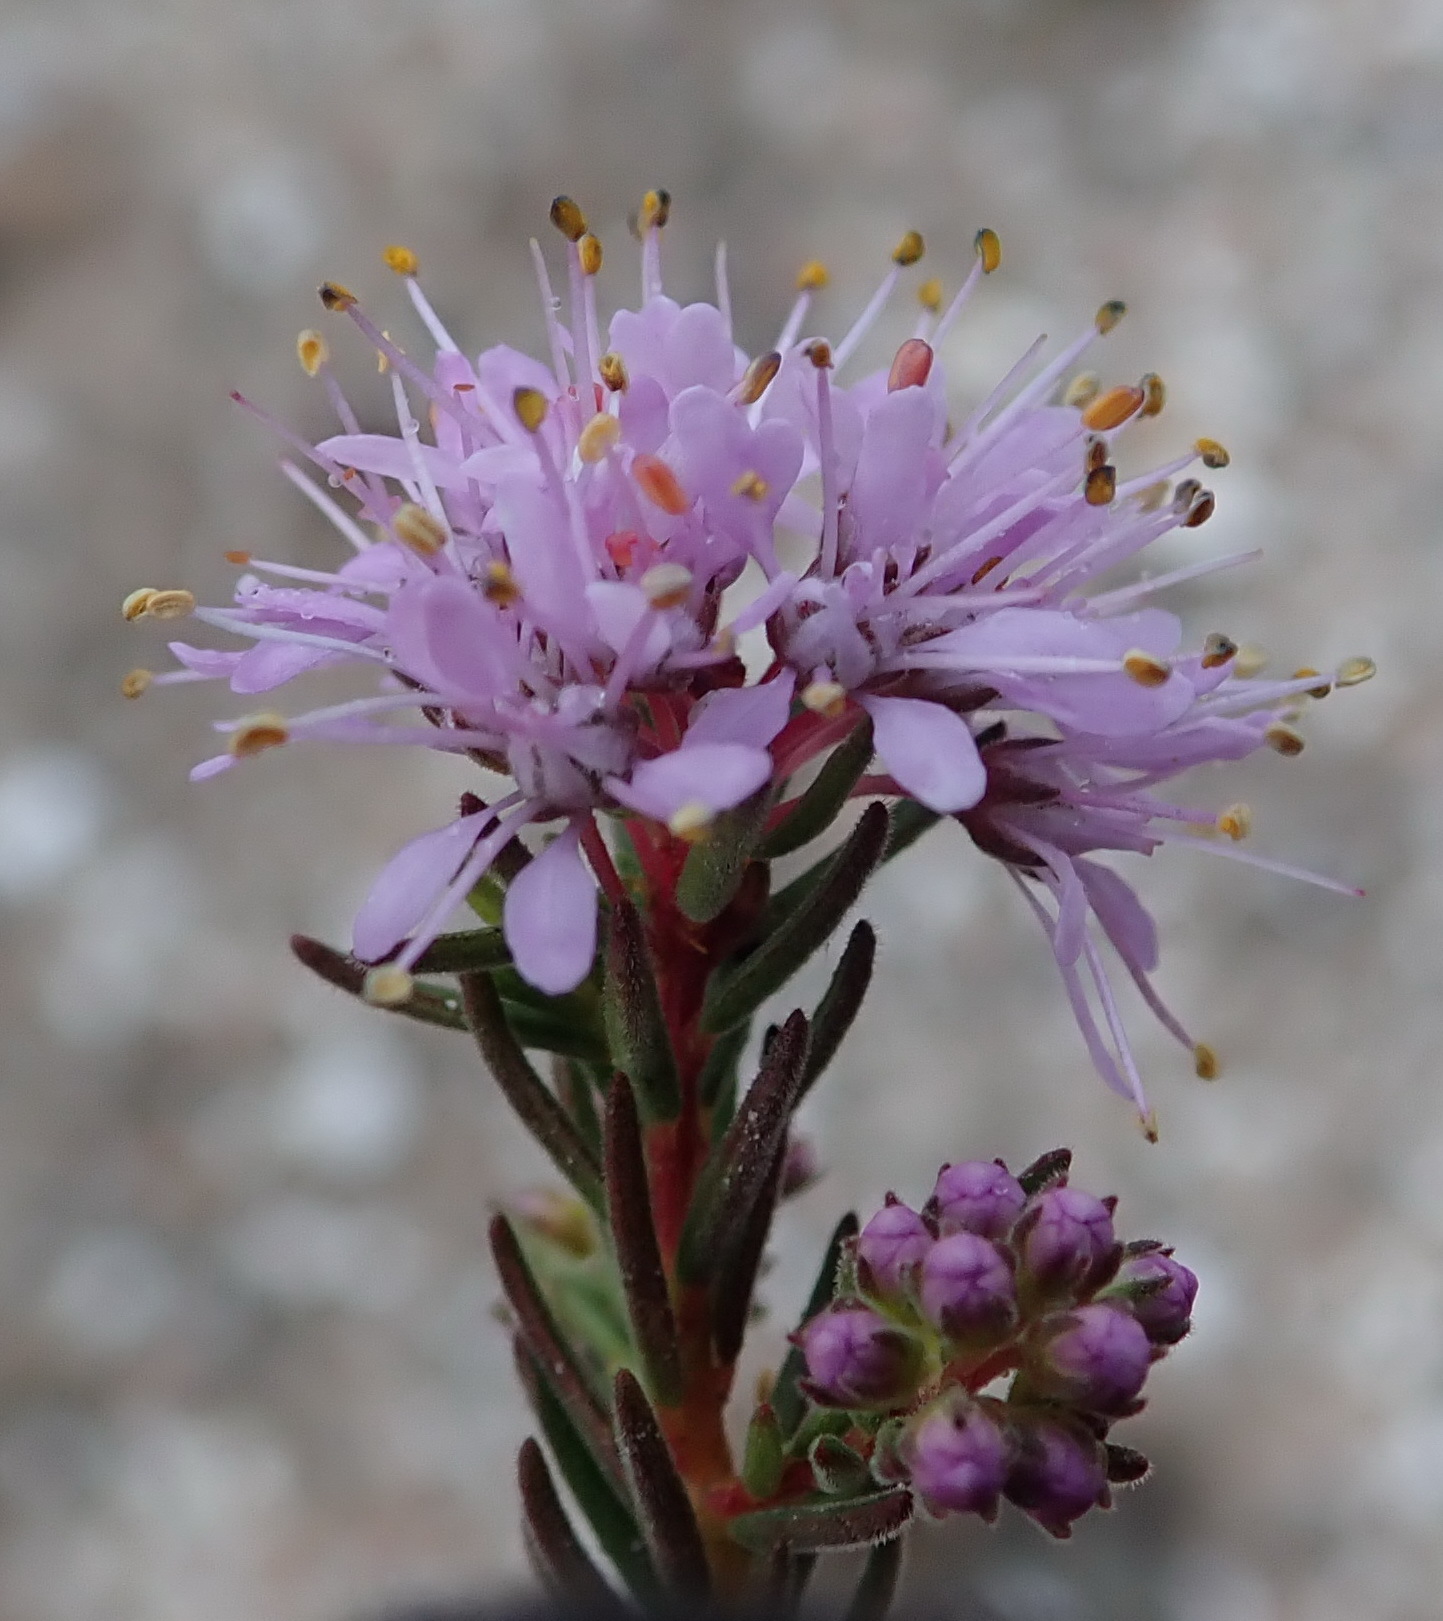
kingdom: Plantae
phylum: Tracheophyta
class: Magnoliopsida
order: Sapindales
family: Rutaceae
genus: Agathosma
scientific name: Agathosma
